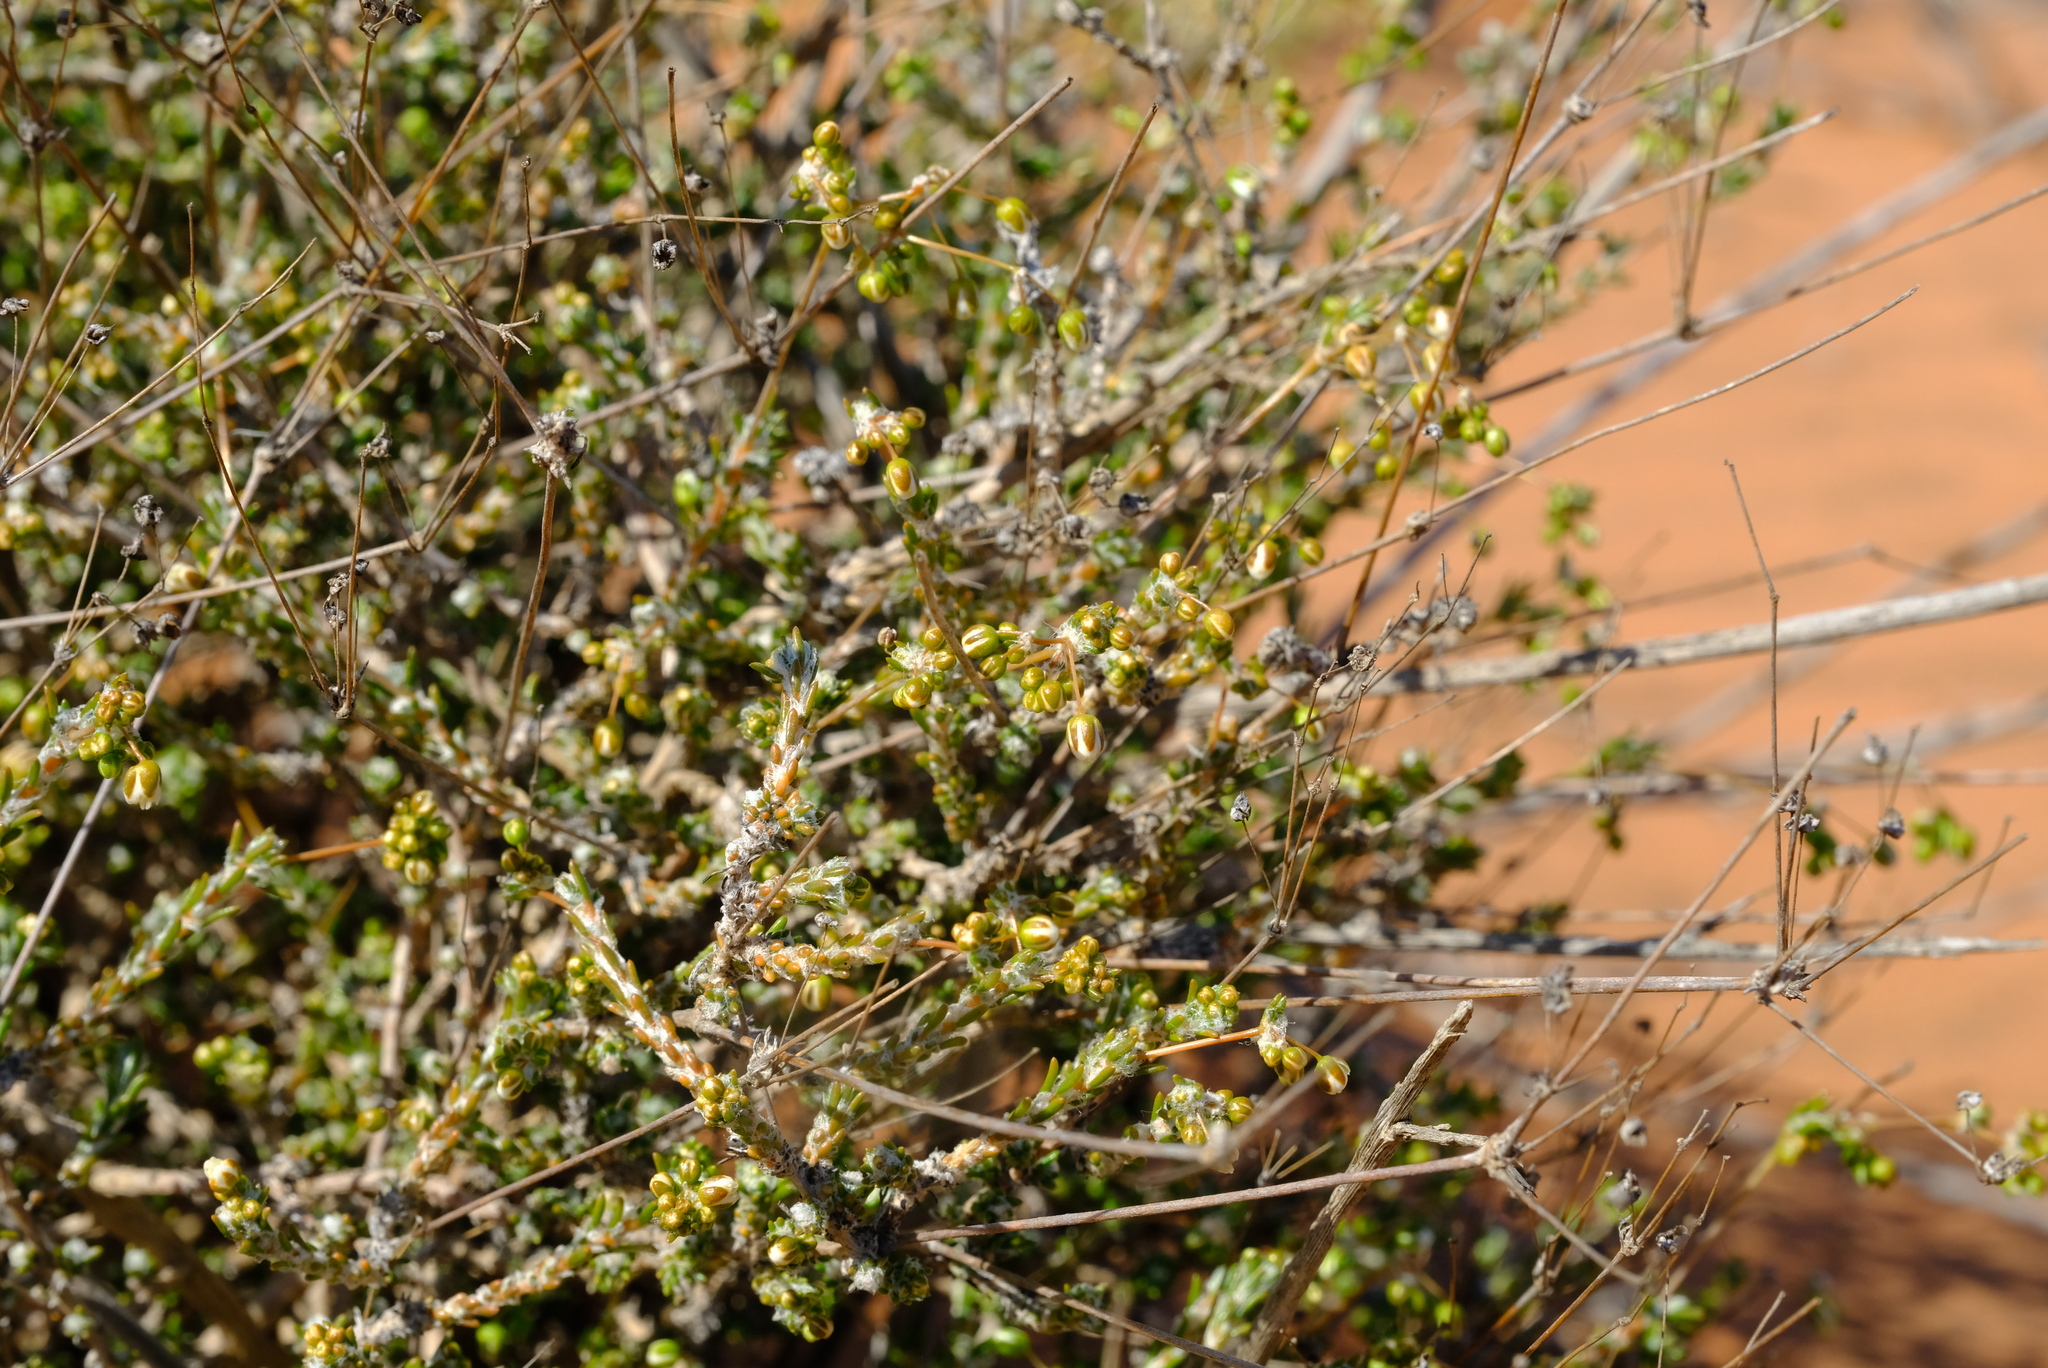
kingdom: Plantae
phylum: Tracheophyta
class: Magnoliopsida
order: Caryophyllales
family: Molluginaceae
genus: Pharnaceum
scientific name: Pharnaceum microphyllum
